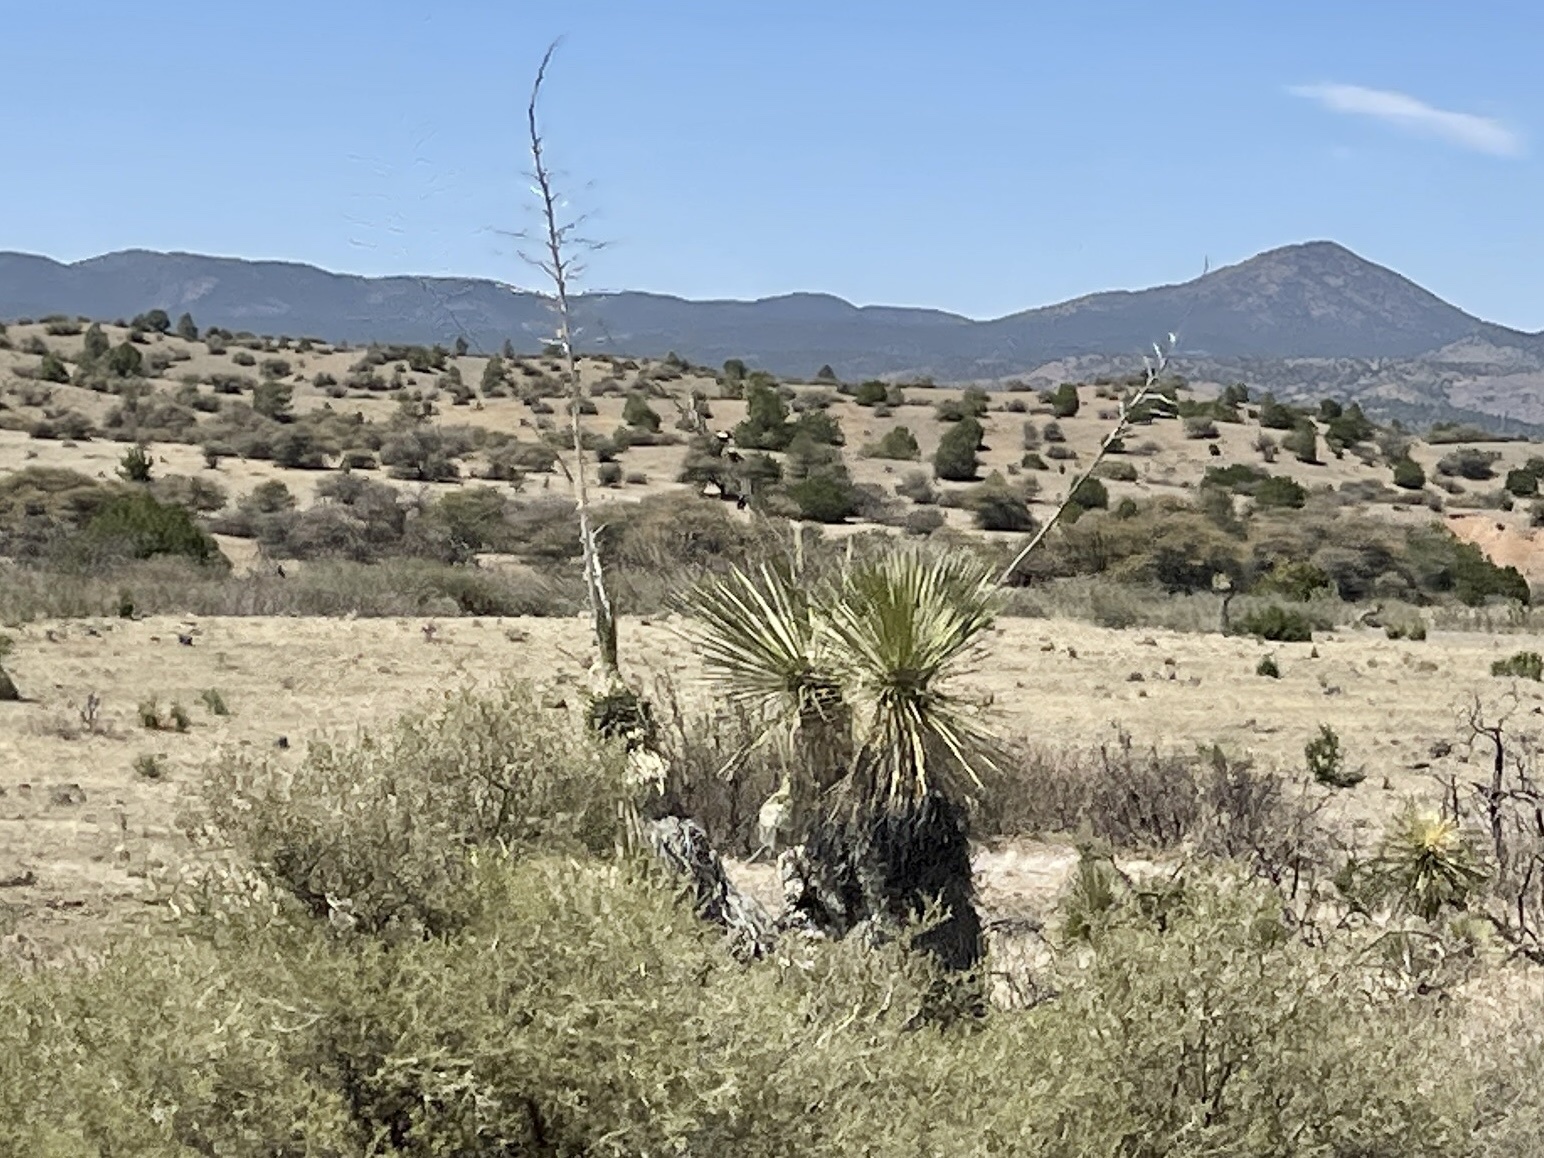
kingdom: Plantae
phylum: Tracheophyta
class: Liliopsida
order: Asparagales
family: Asparagaceae
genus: Yucca
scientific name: Yucca elata
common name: Palmella
